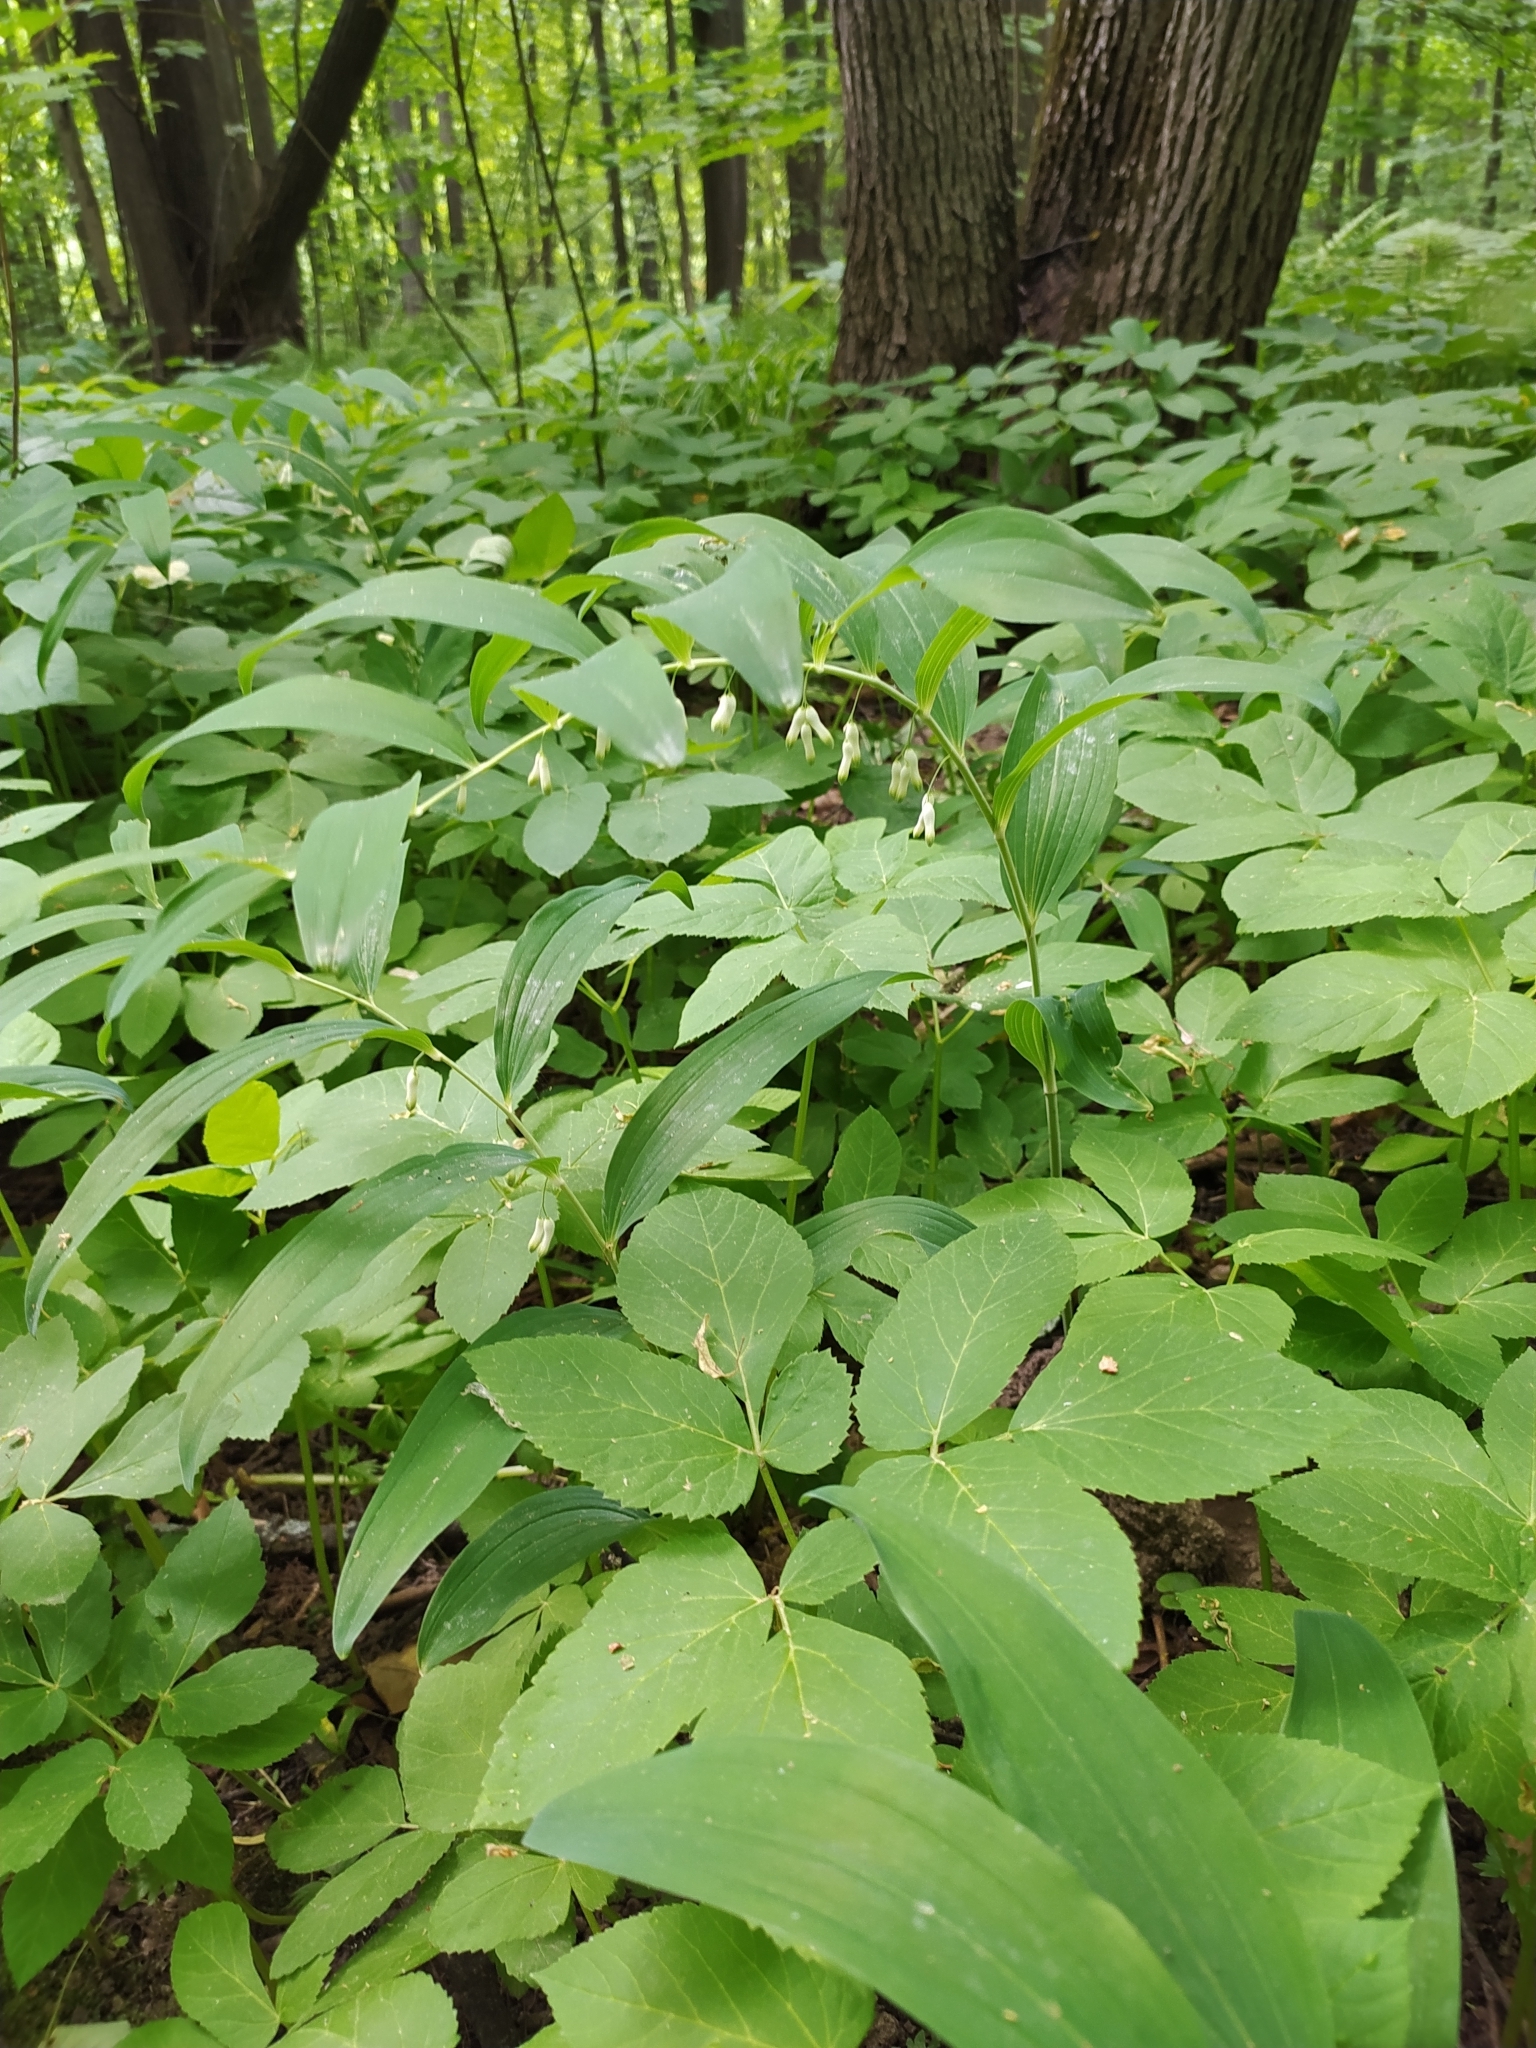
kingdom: Plantae
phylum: Tracheophyta
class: Liliopsida
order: Asparagales
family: Asparagaceae
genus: Polygonatum
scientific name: Polygonatum multiflorum
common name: Solomon's-seal
